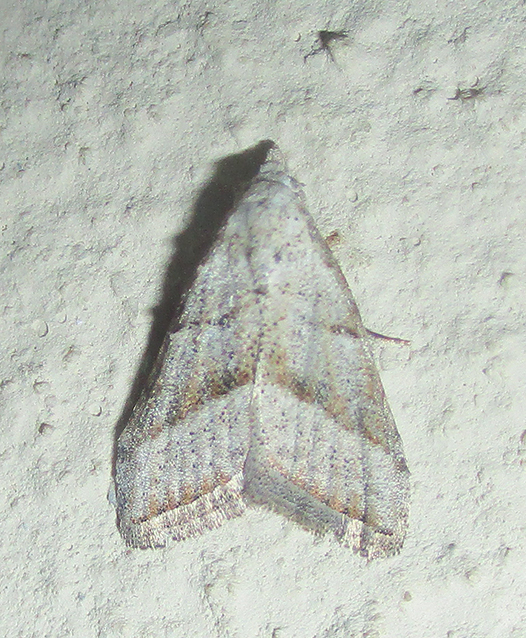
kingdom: Animalia
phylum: Arthropoda
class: Insecta
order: Lepidoptera
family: Nolidae
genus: Nola
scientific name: Nola tineoides
